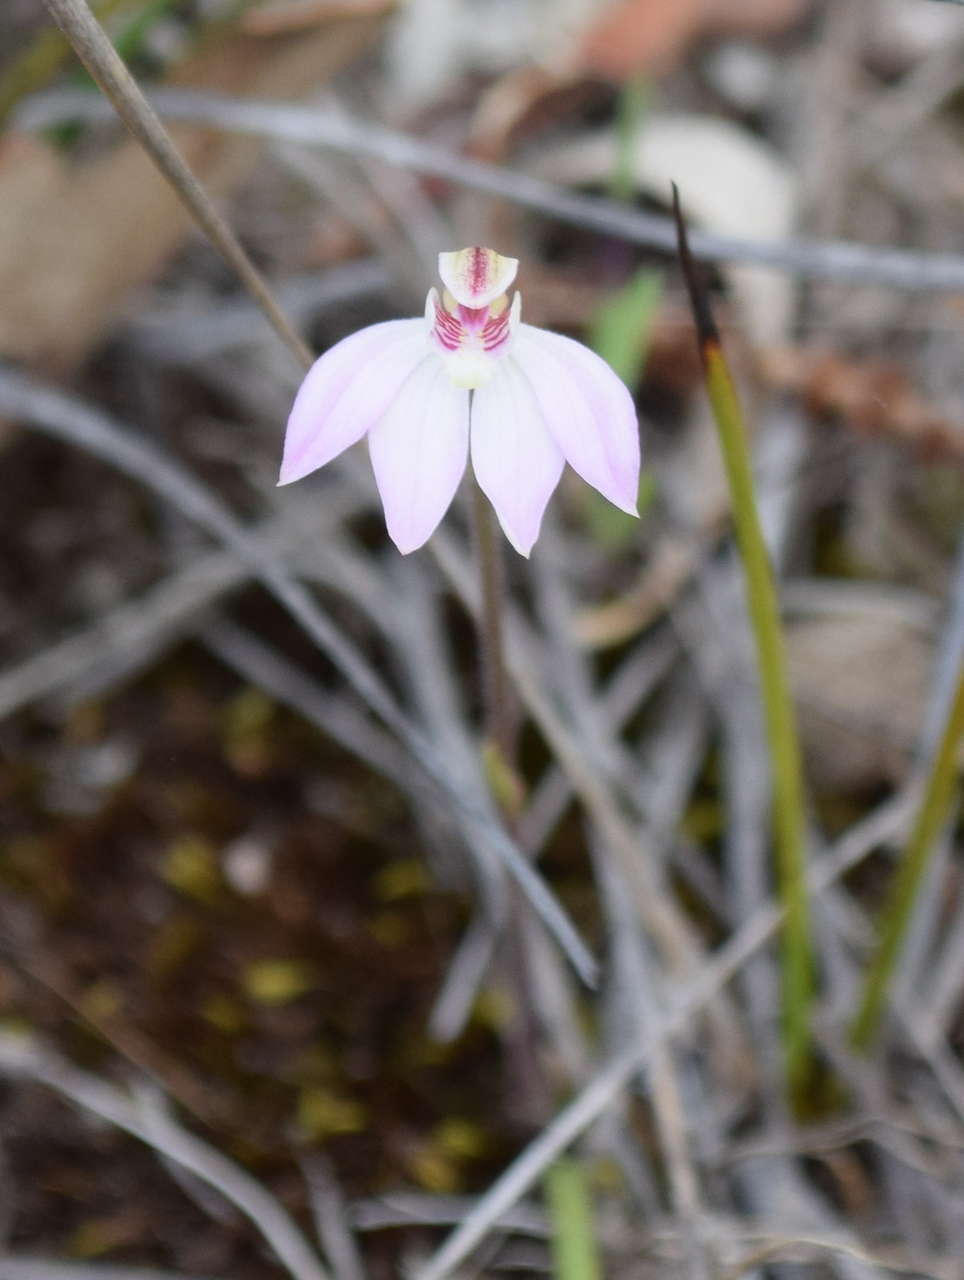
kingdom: Plantae
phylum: Tracheophyta
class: Liliopsida
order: Asparagales
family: Orchidaceae
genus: Caladenia
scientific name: Caladenia carnea
